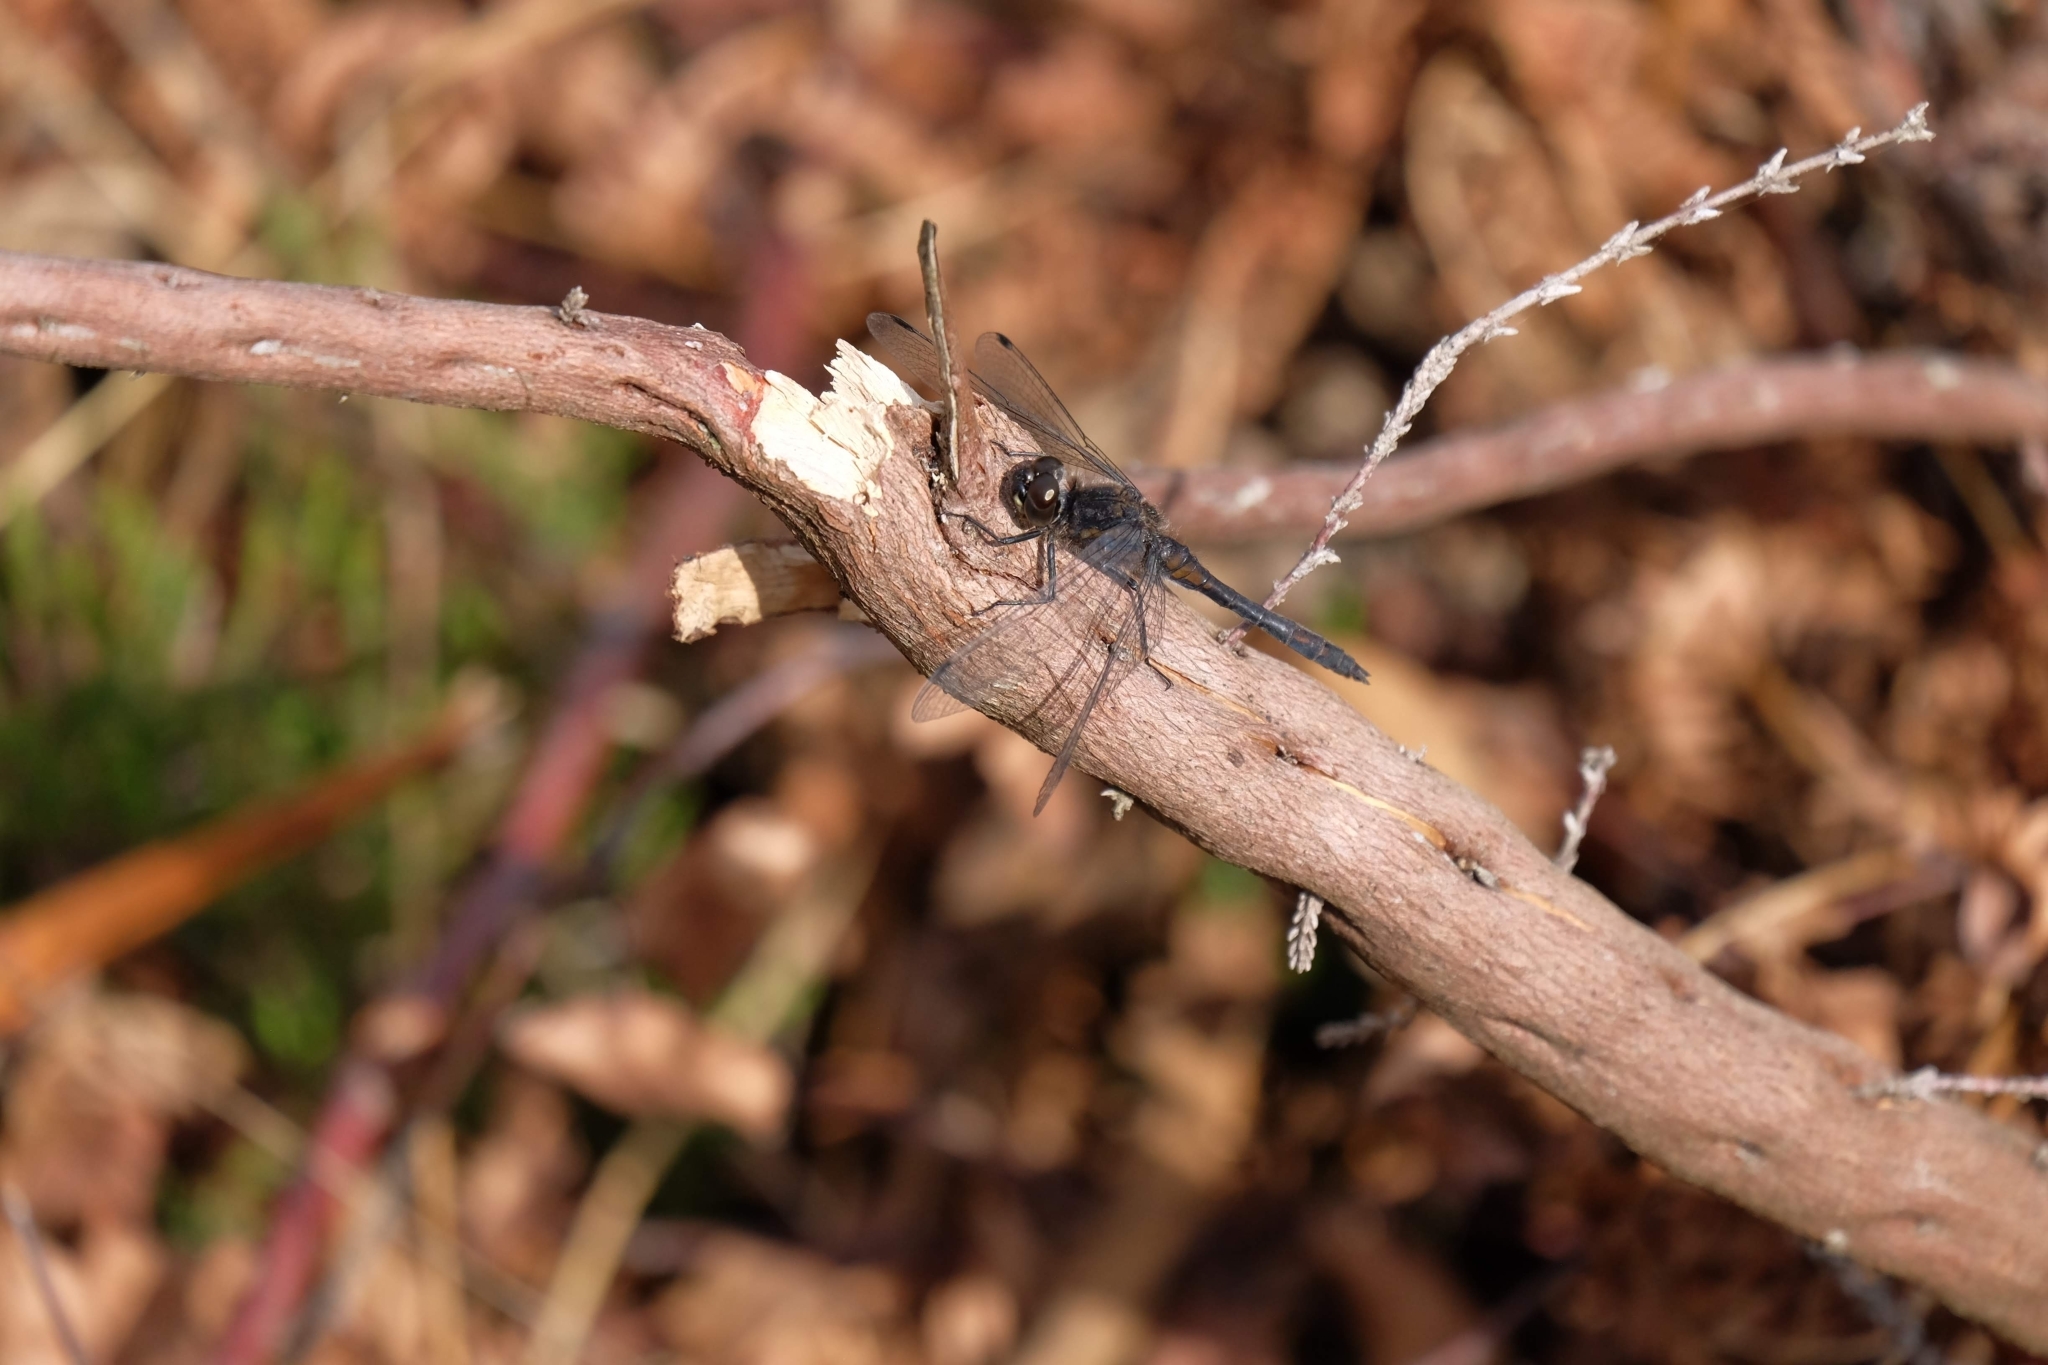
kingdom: Animalia
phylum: Arthropoda
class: Insecta
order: Odonata
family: Libellulidae
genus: Sympetrum
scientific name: Sympetrum danae
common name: Black darter
